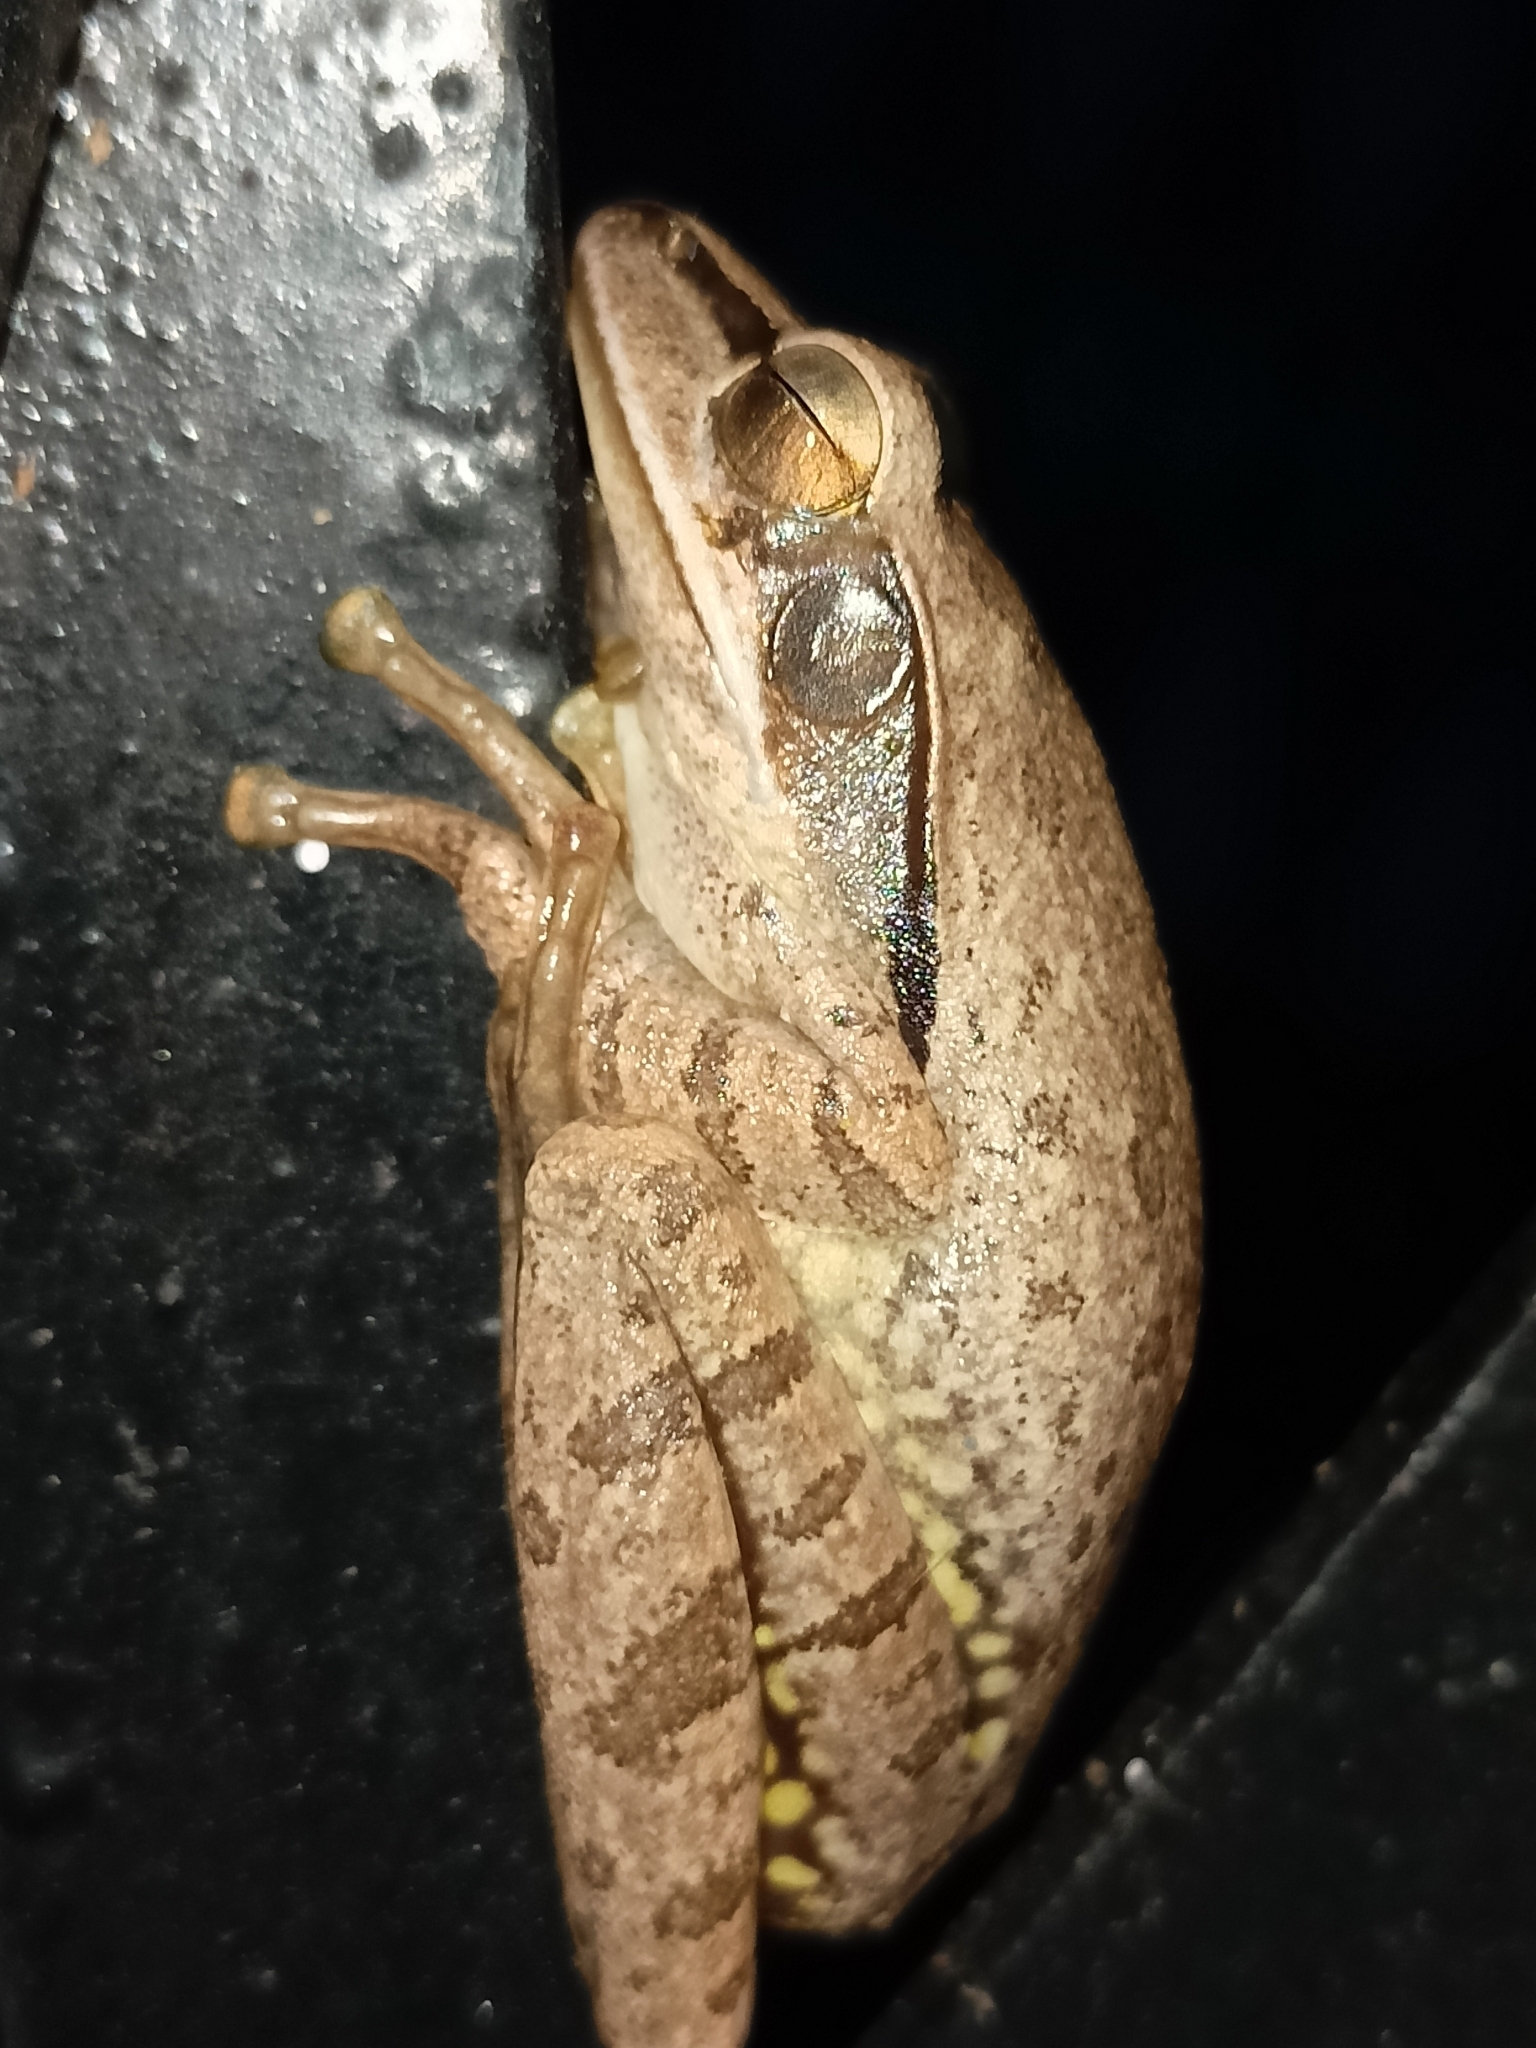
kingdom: Animalia
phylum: Chordata
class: Amphibia
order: Anura
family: Rhacophoridae
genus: Polypedates
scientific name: Polypedates maculatus
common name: Himalayan tree frog
